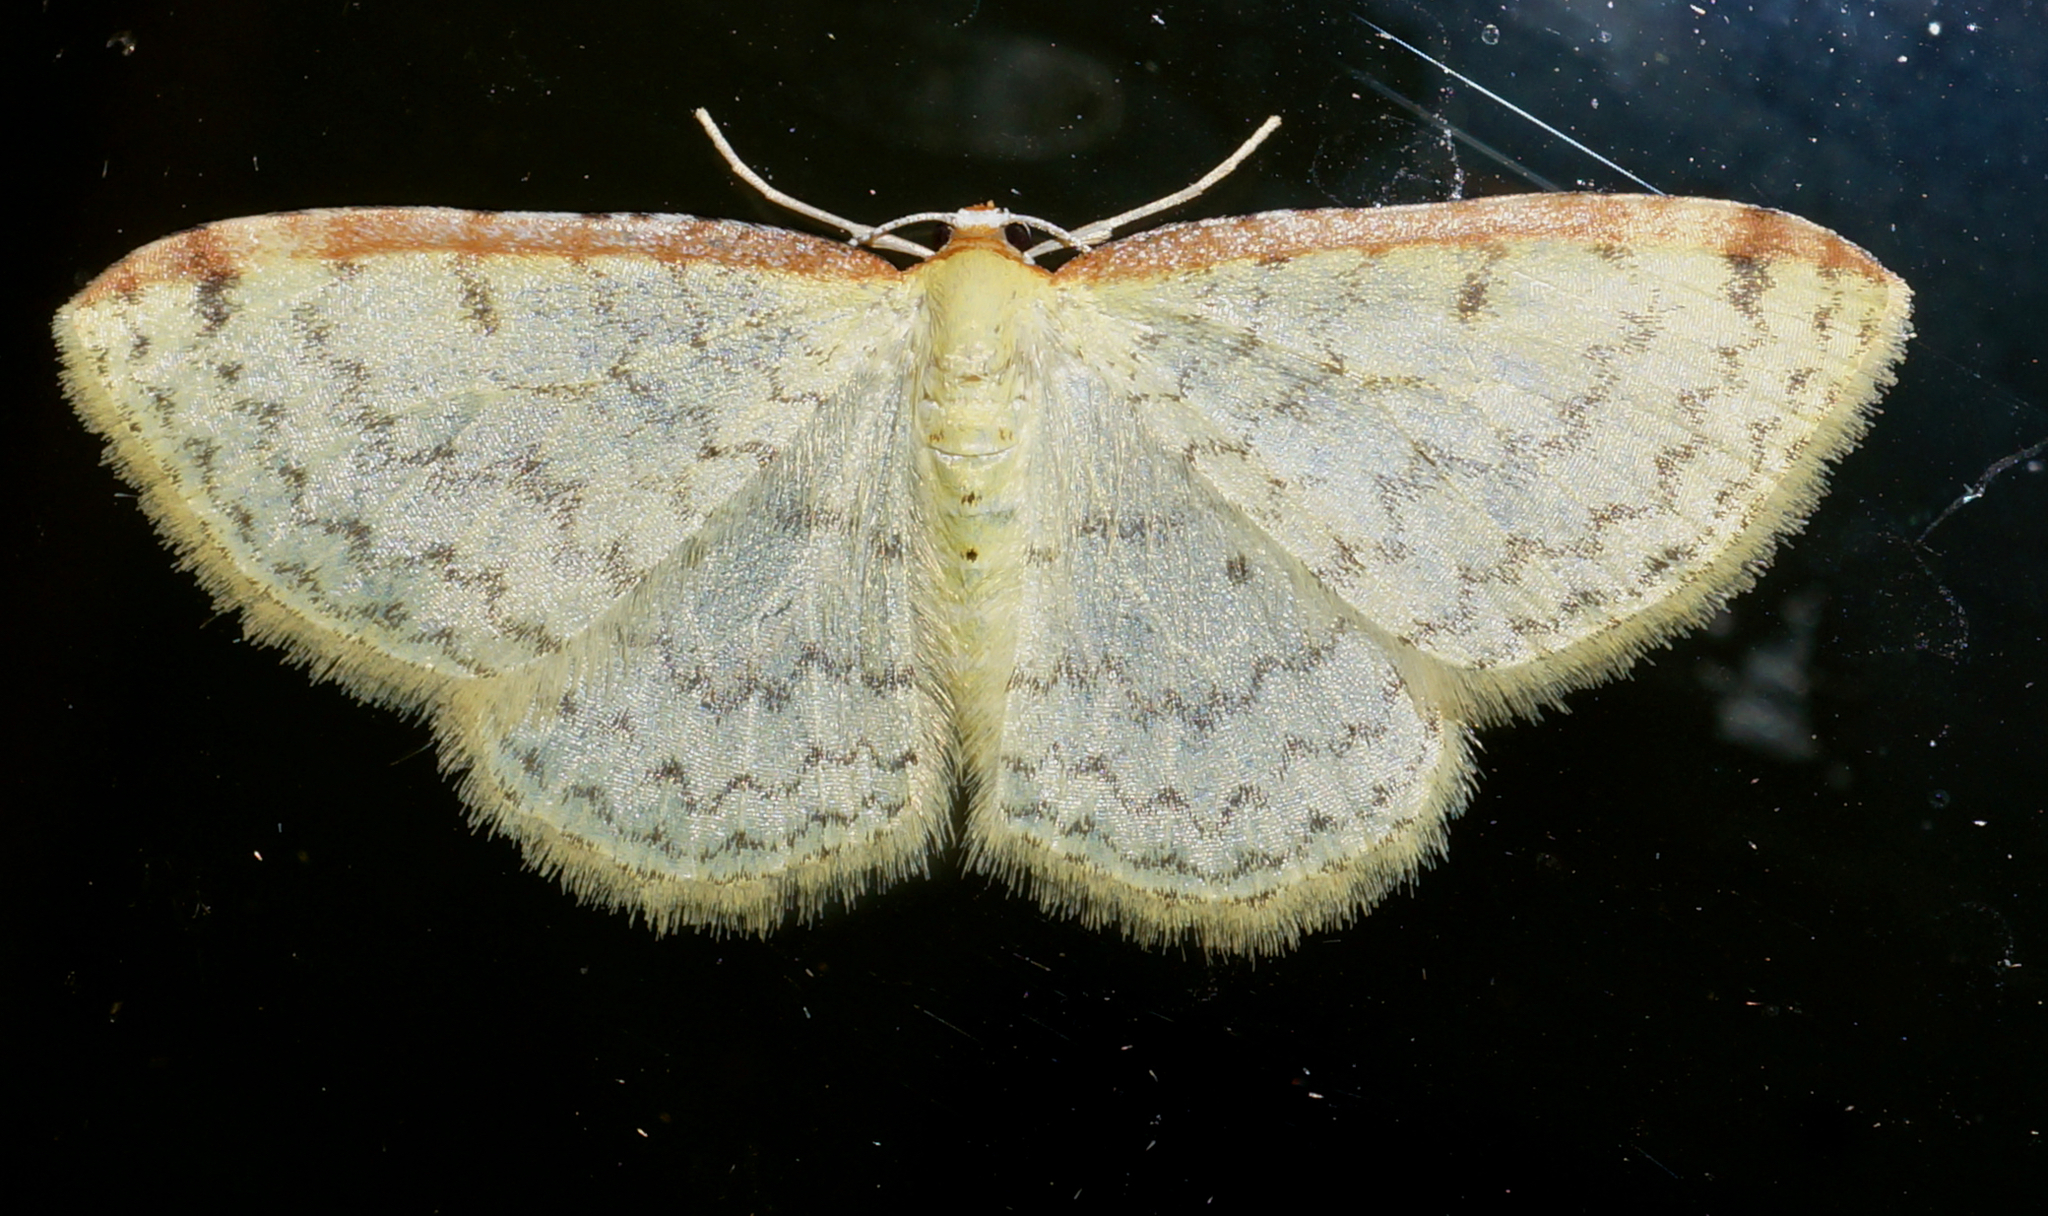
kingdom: Animalia
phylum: Arthropoda
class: Insecta
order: Lepidoptera
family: Geometridae
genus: Epiphryne
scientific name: Epiphryne undosata
